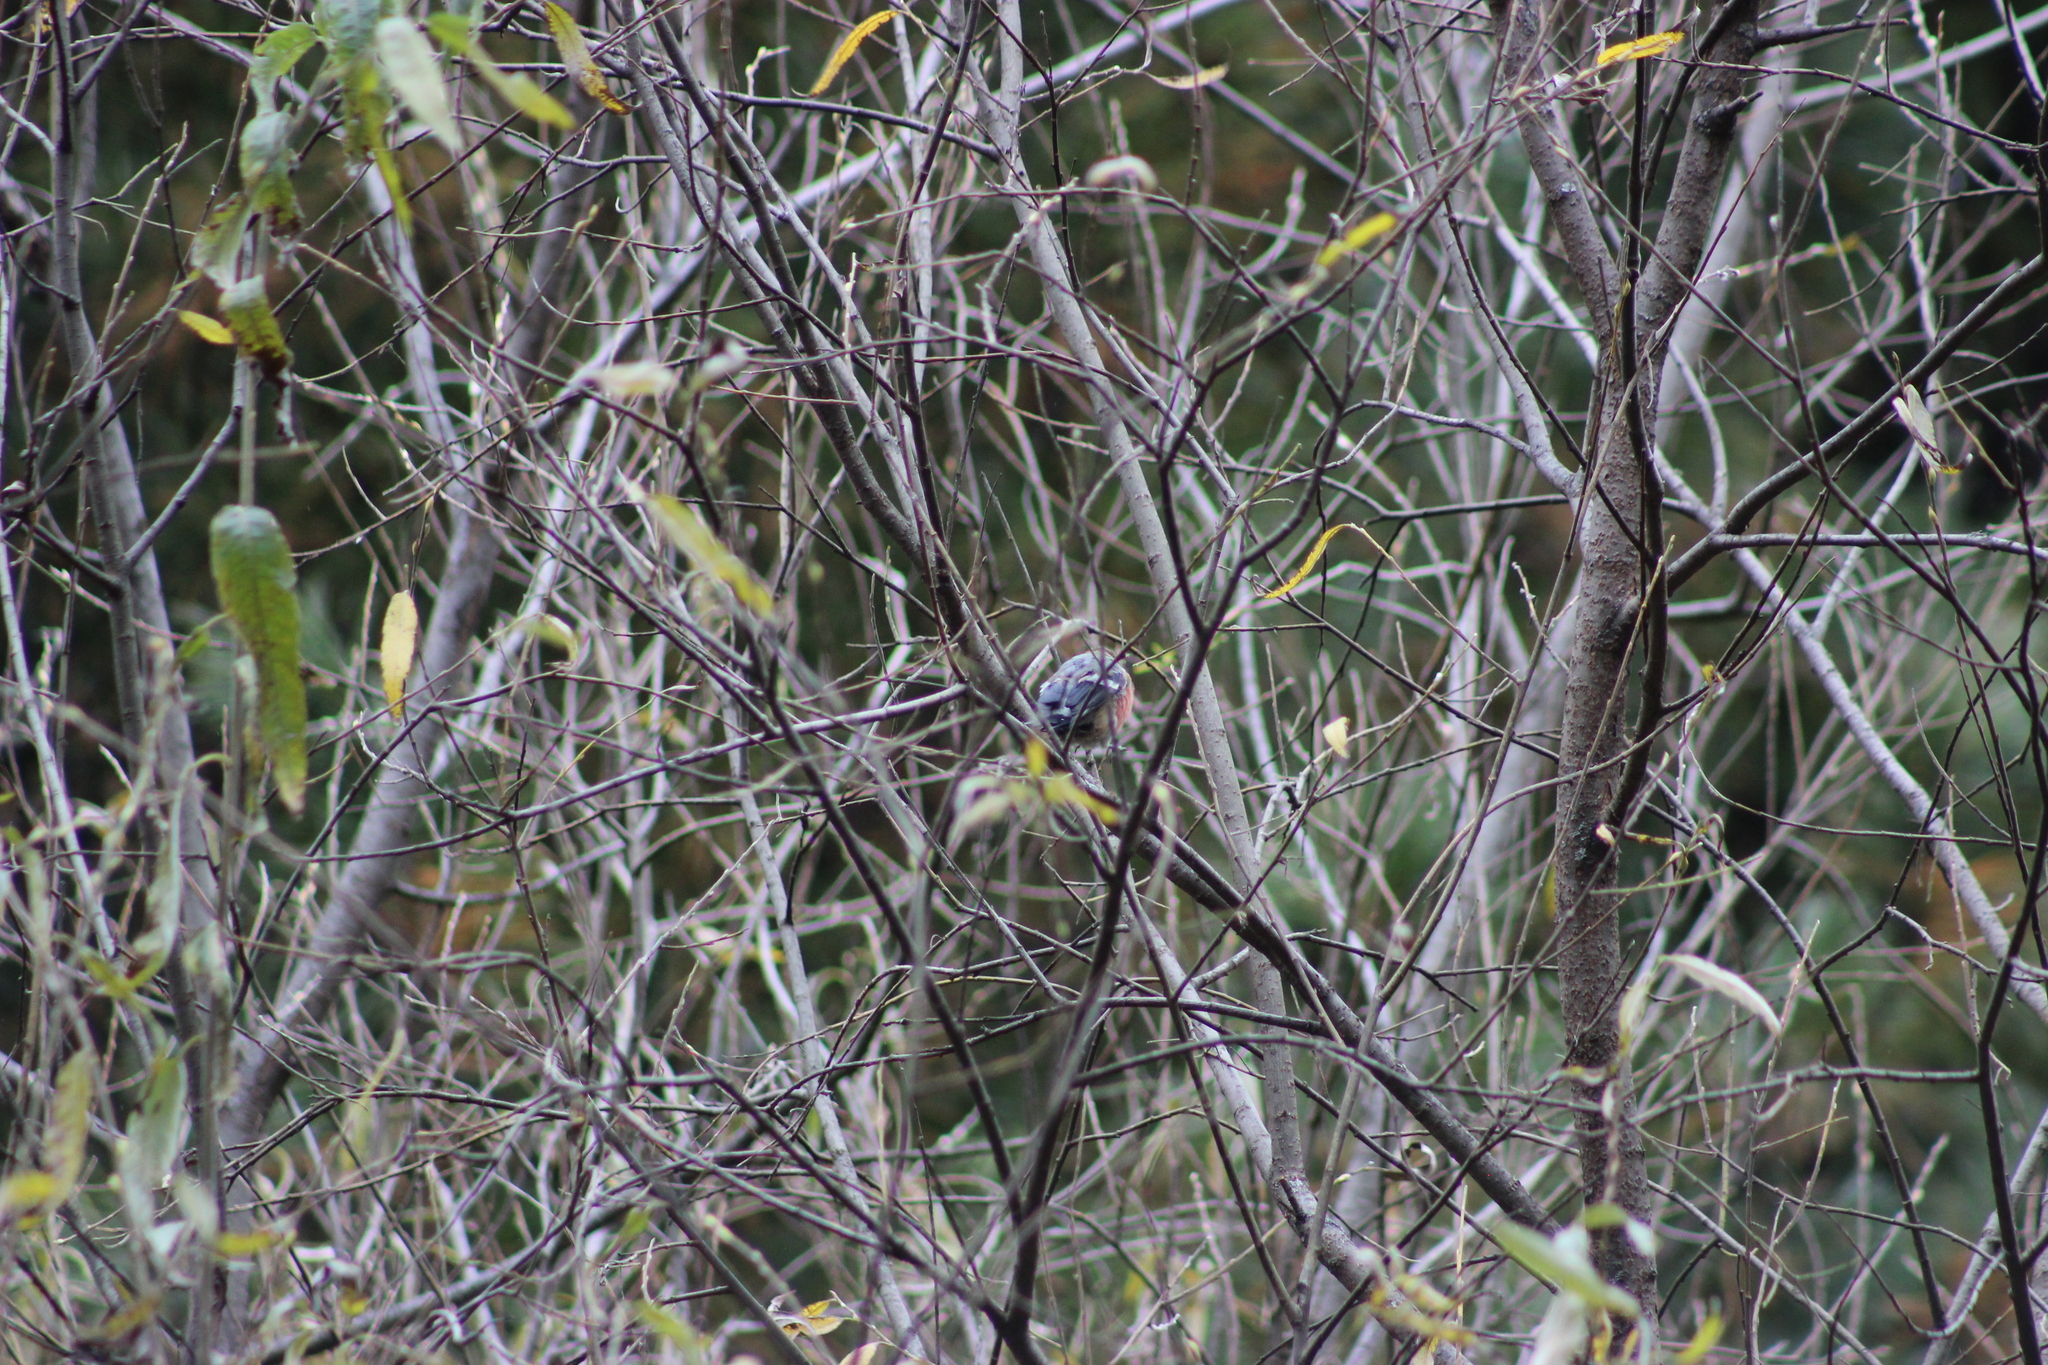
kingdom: Animalia
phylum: Chordata
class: Aves
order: Passeriformes
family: Fringillidae
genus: Pyrrhula
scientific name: Pyrrhula pyrrhula
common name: Eurasian bullfinch
